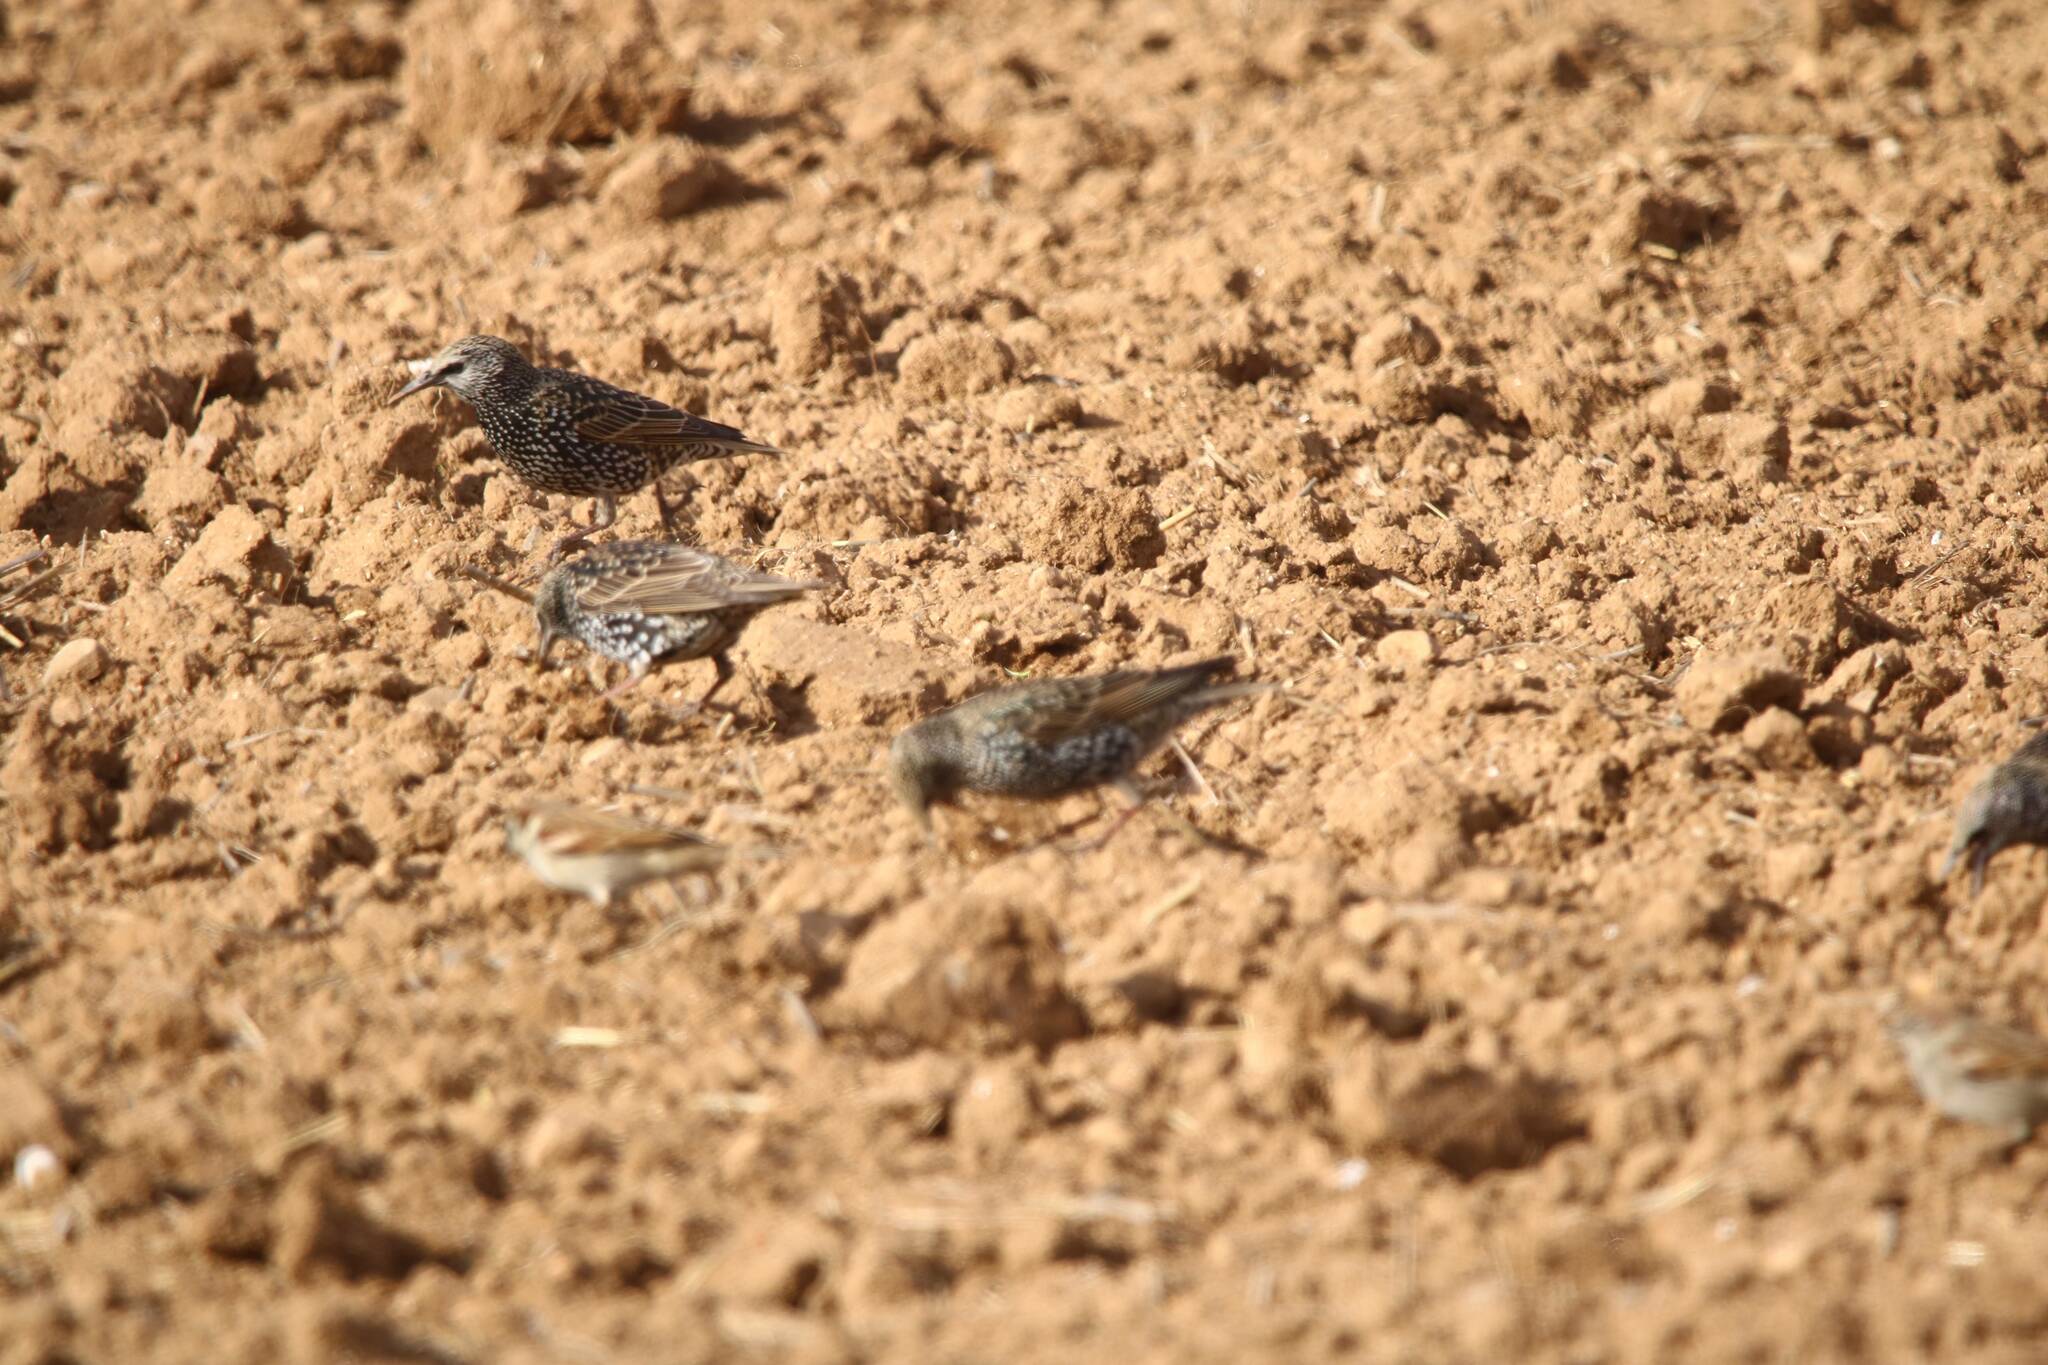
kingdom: Animalia
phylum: Chordata
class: Aves
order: Passeriformes
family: Sturnidae
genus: Sturnus
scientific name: Sturnus vulgaris
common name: Common starling
